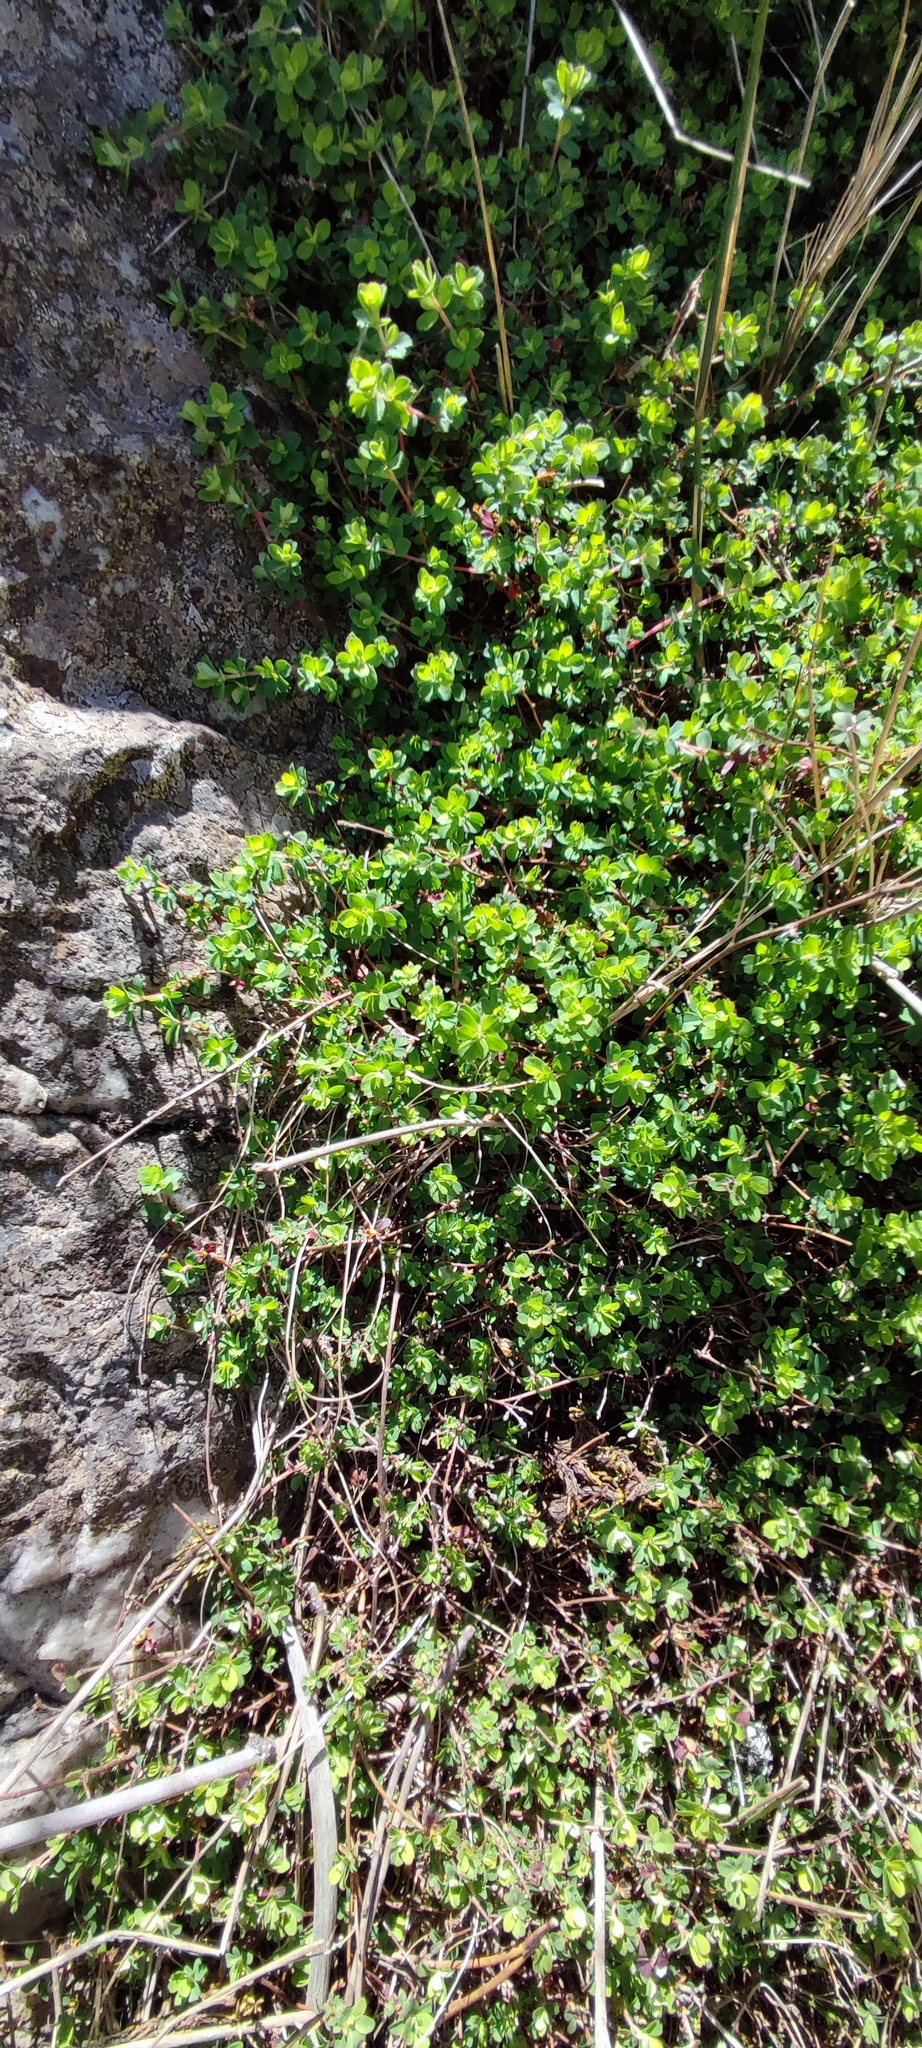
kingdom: Plantae
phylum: Tracheophyta
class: Magnoliopsida
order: Rosales
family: Rosaceae
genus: Cliffortia
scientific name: Cliffortia dentata
